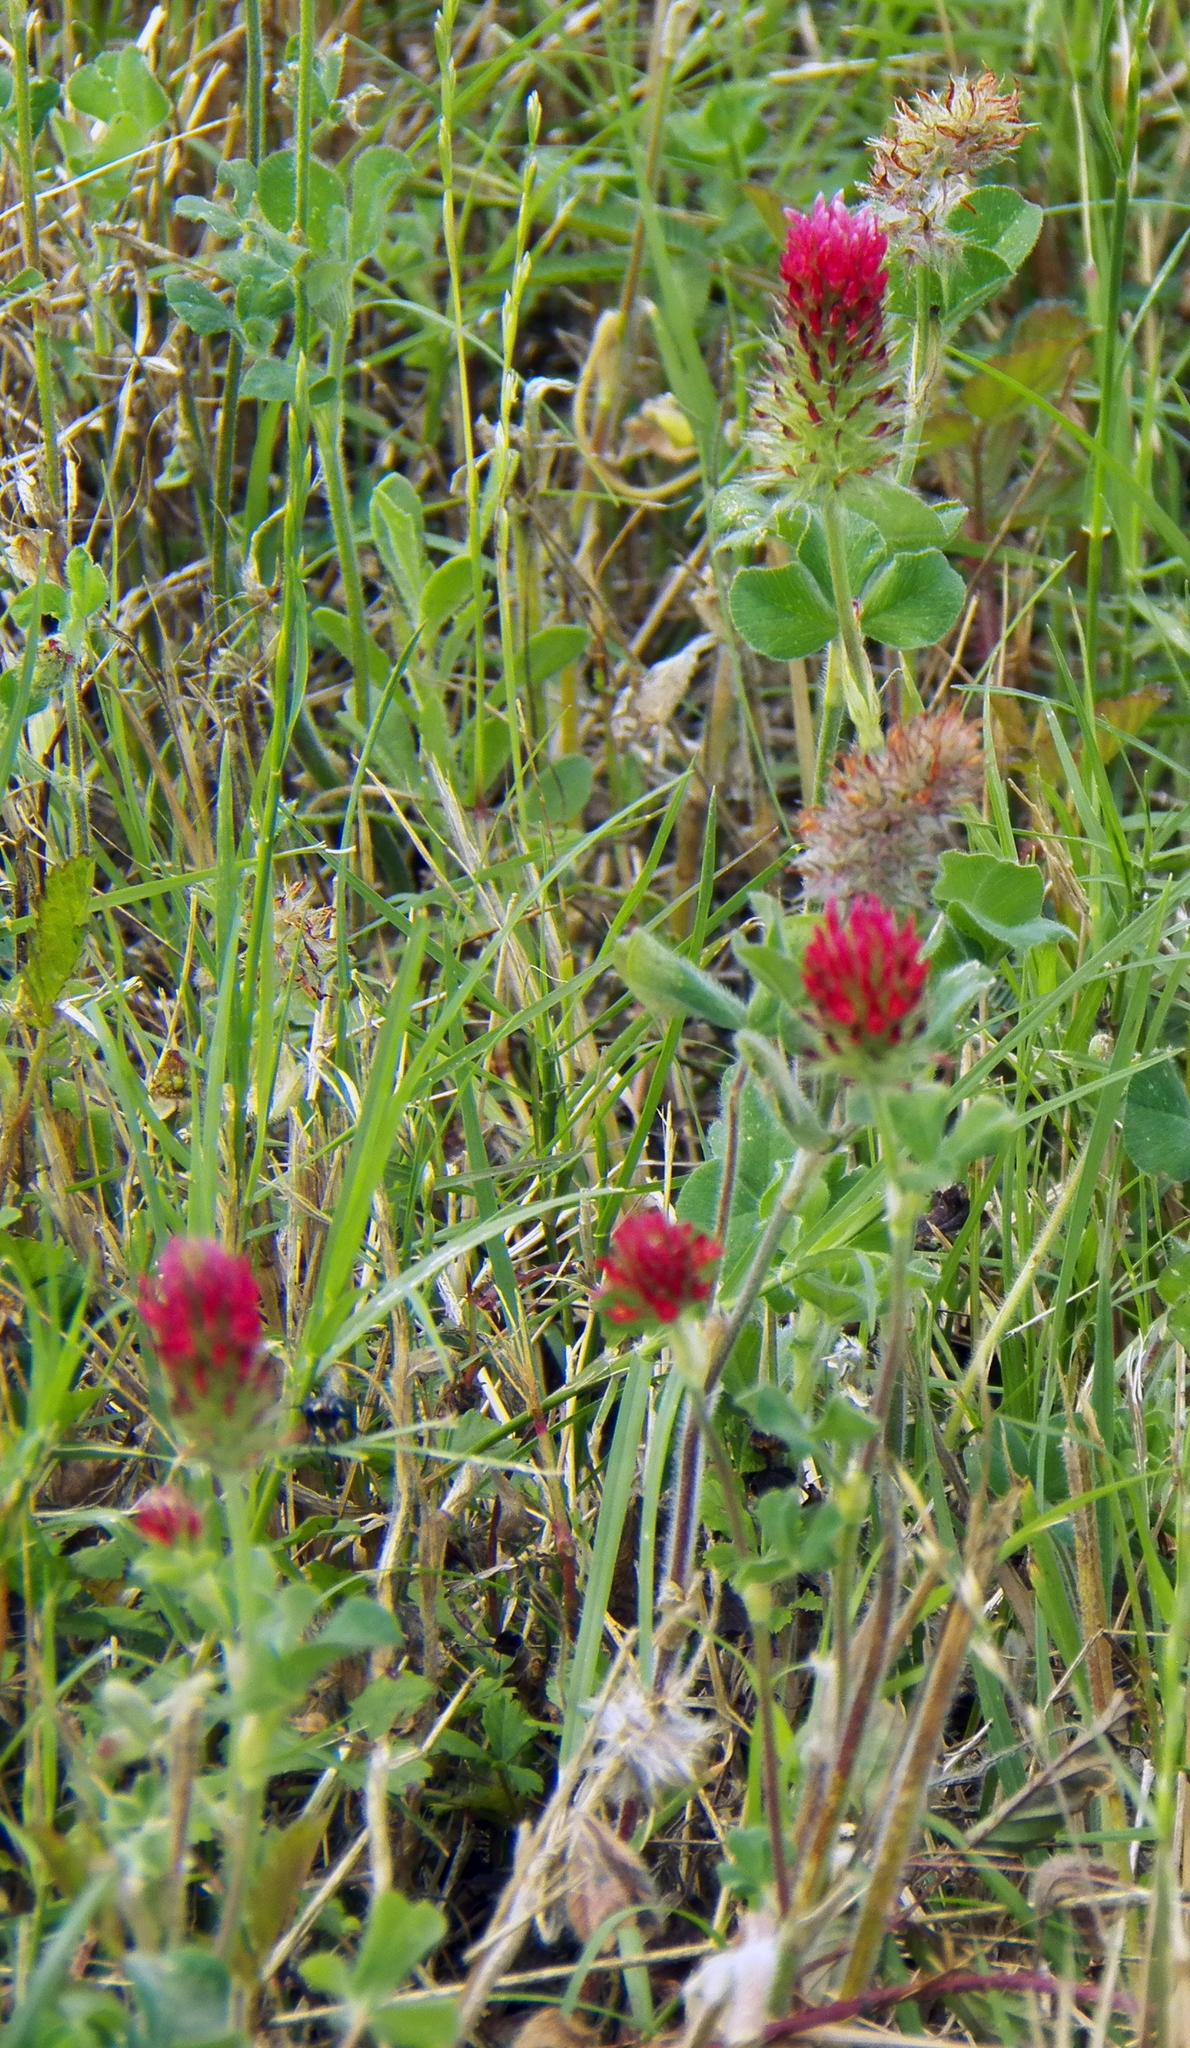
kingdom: Plantae
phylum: Tracheophyta
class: Magnoliopsida
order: Fabales
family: Fabaceae
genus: Trifolium
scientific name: Trifolium incarnatum
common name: Crimson clover
